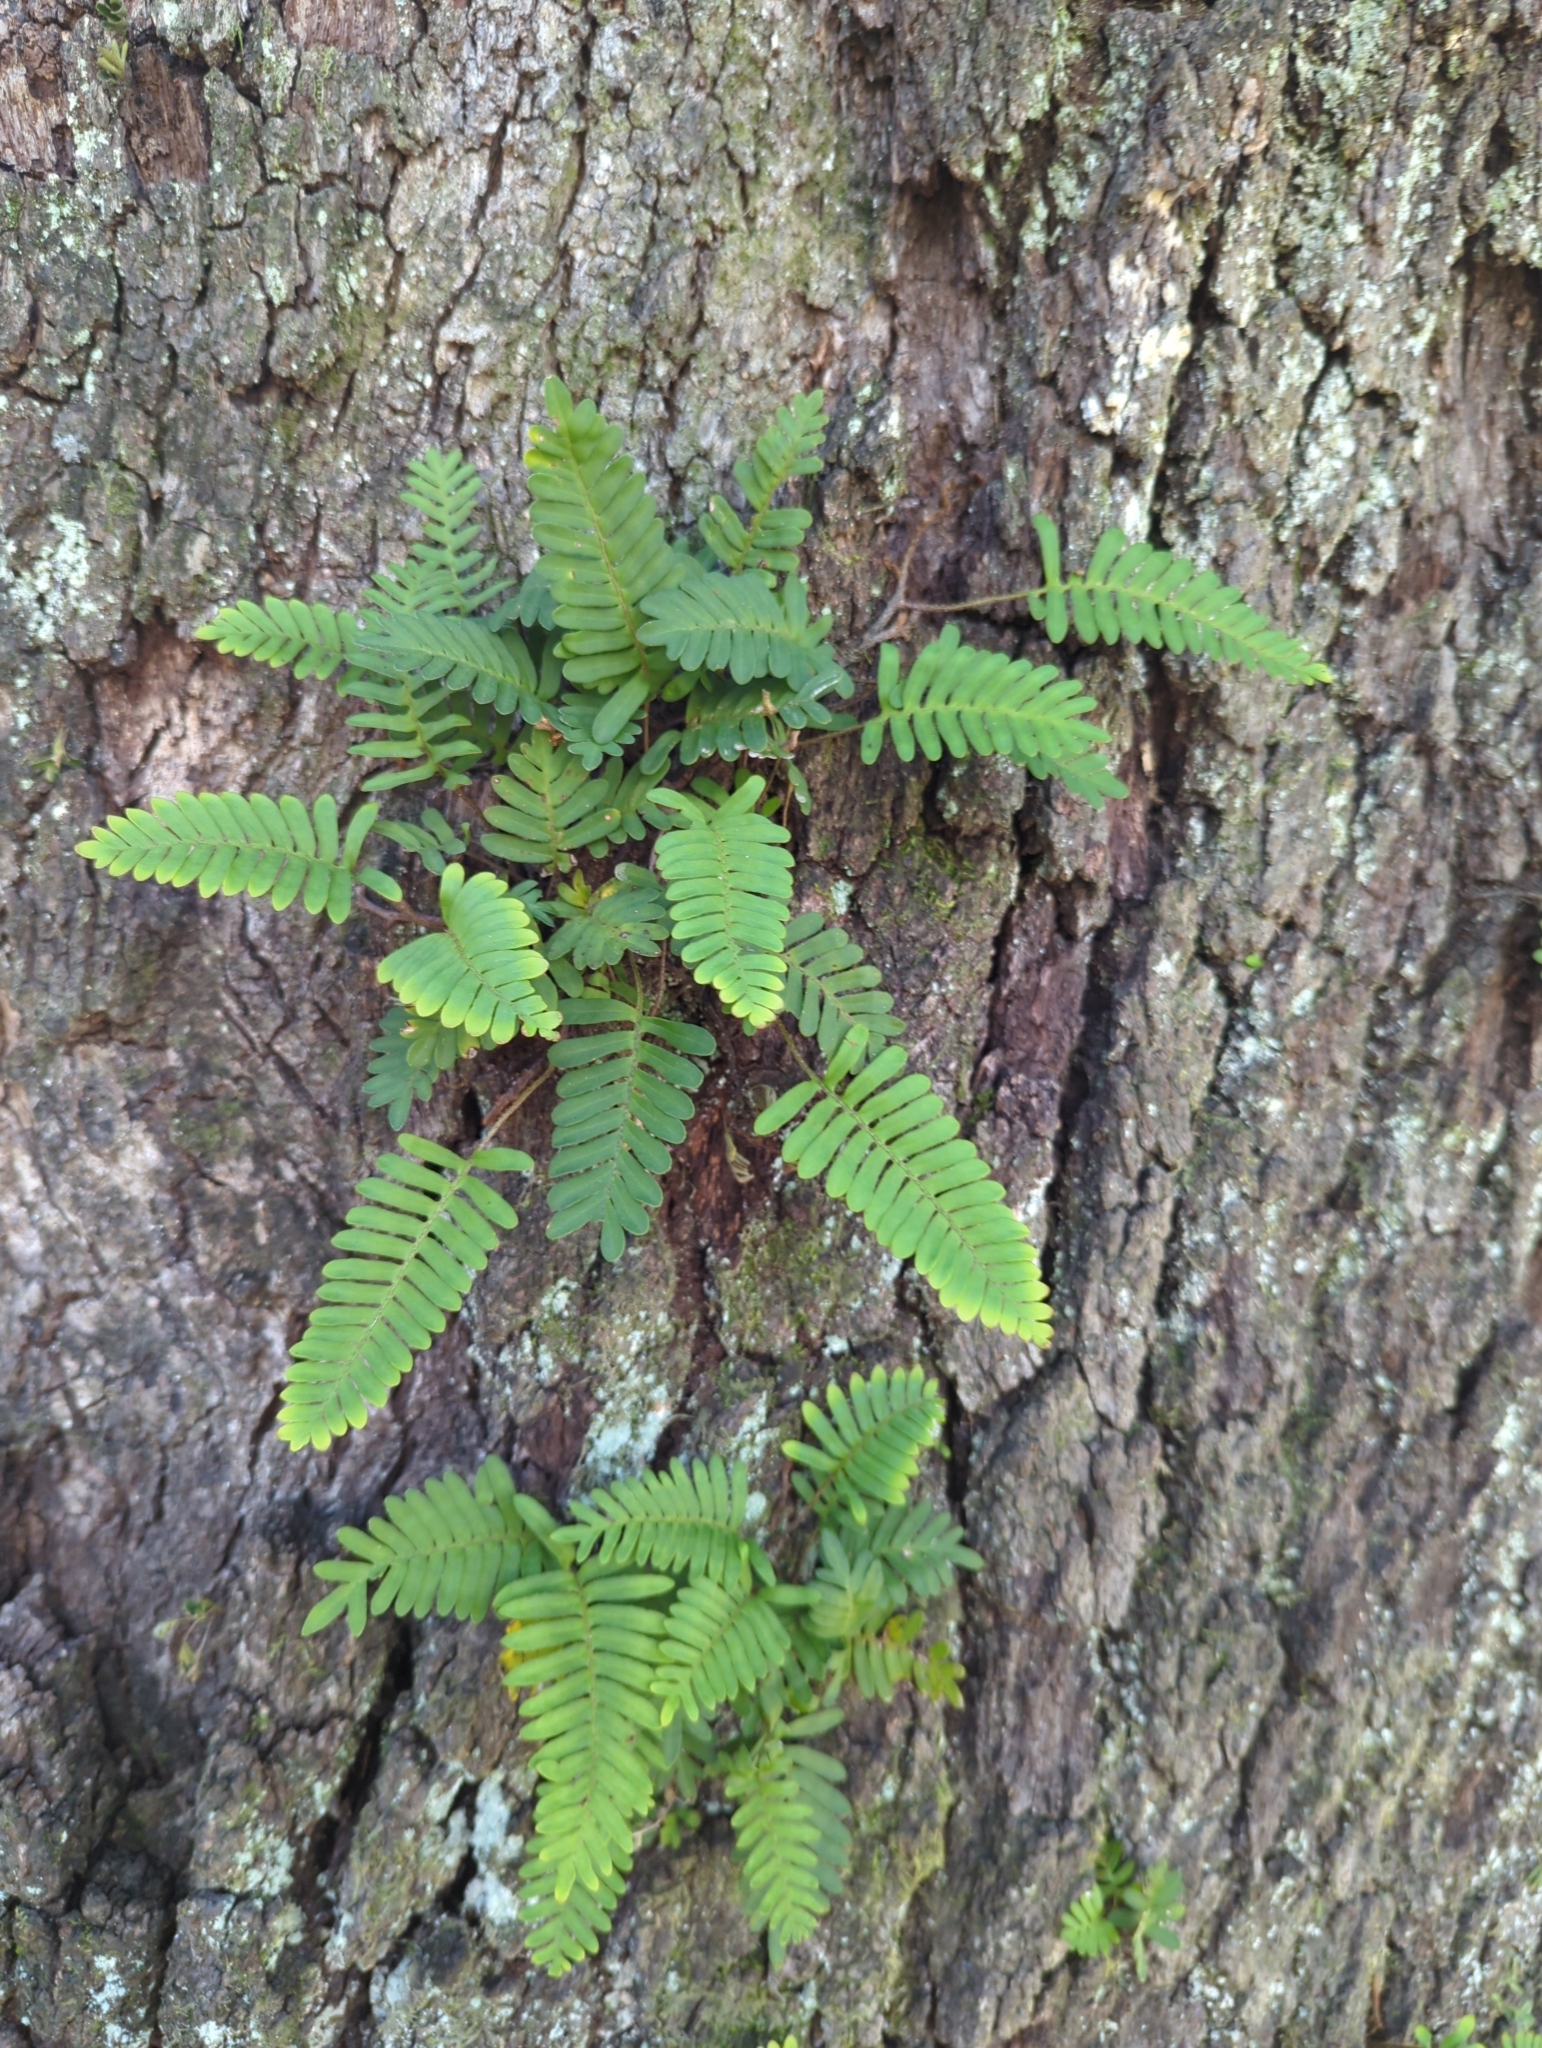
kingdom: Plantae
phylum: Tracheophyta
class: Polypodiopsida
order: Polypodiales
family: Polypodiaceae
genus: Pleopeltis
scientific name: Pleopeltis michauxiana
